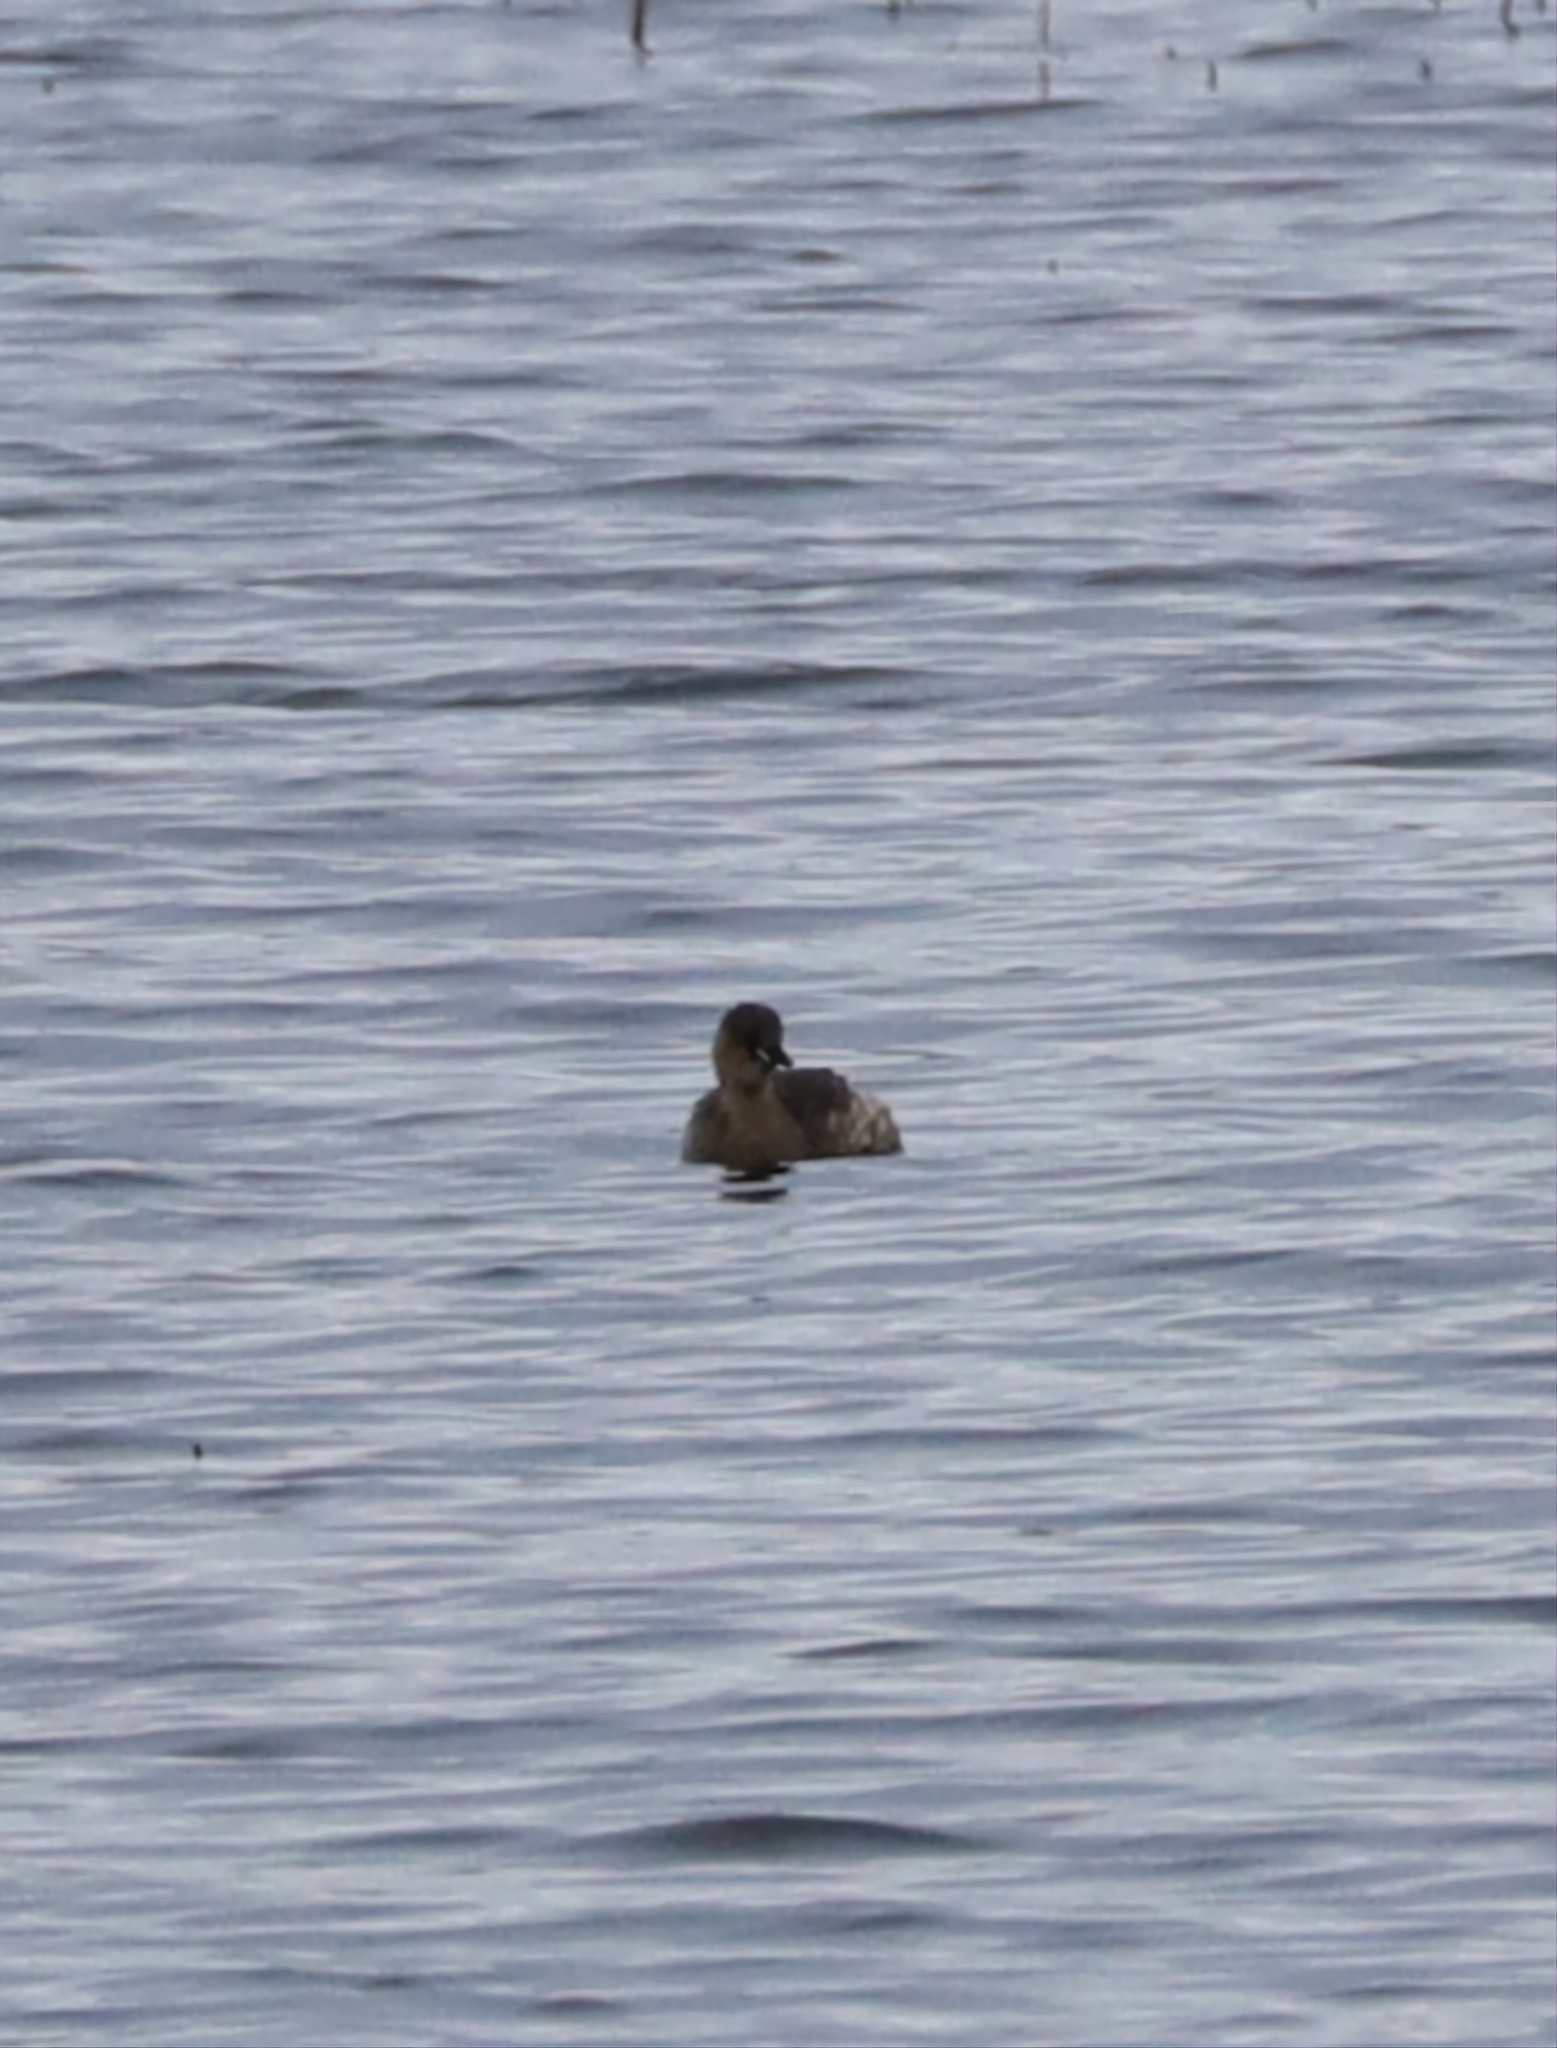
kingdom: Animalia
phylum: Chordata
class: Aves
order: Podicipediformes
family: Podicipedidae
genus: Tachybaptus
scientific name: Tachybaptus ruficollis
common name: Little grebe
